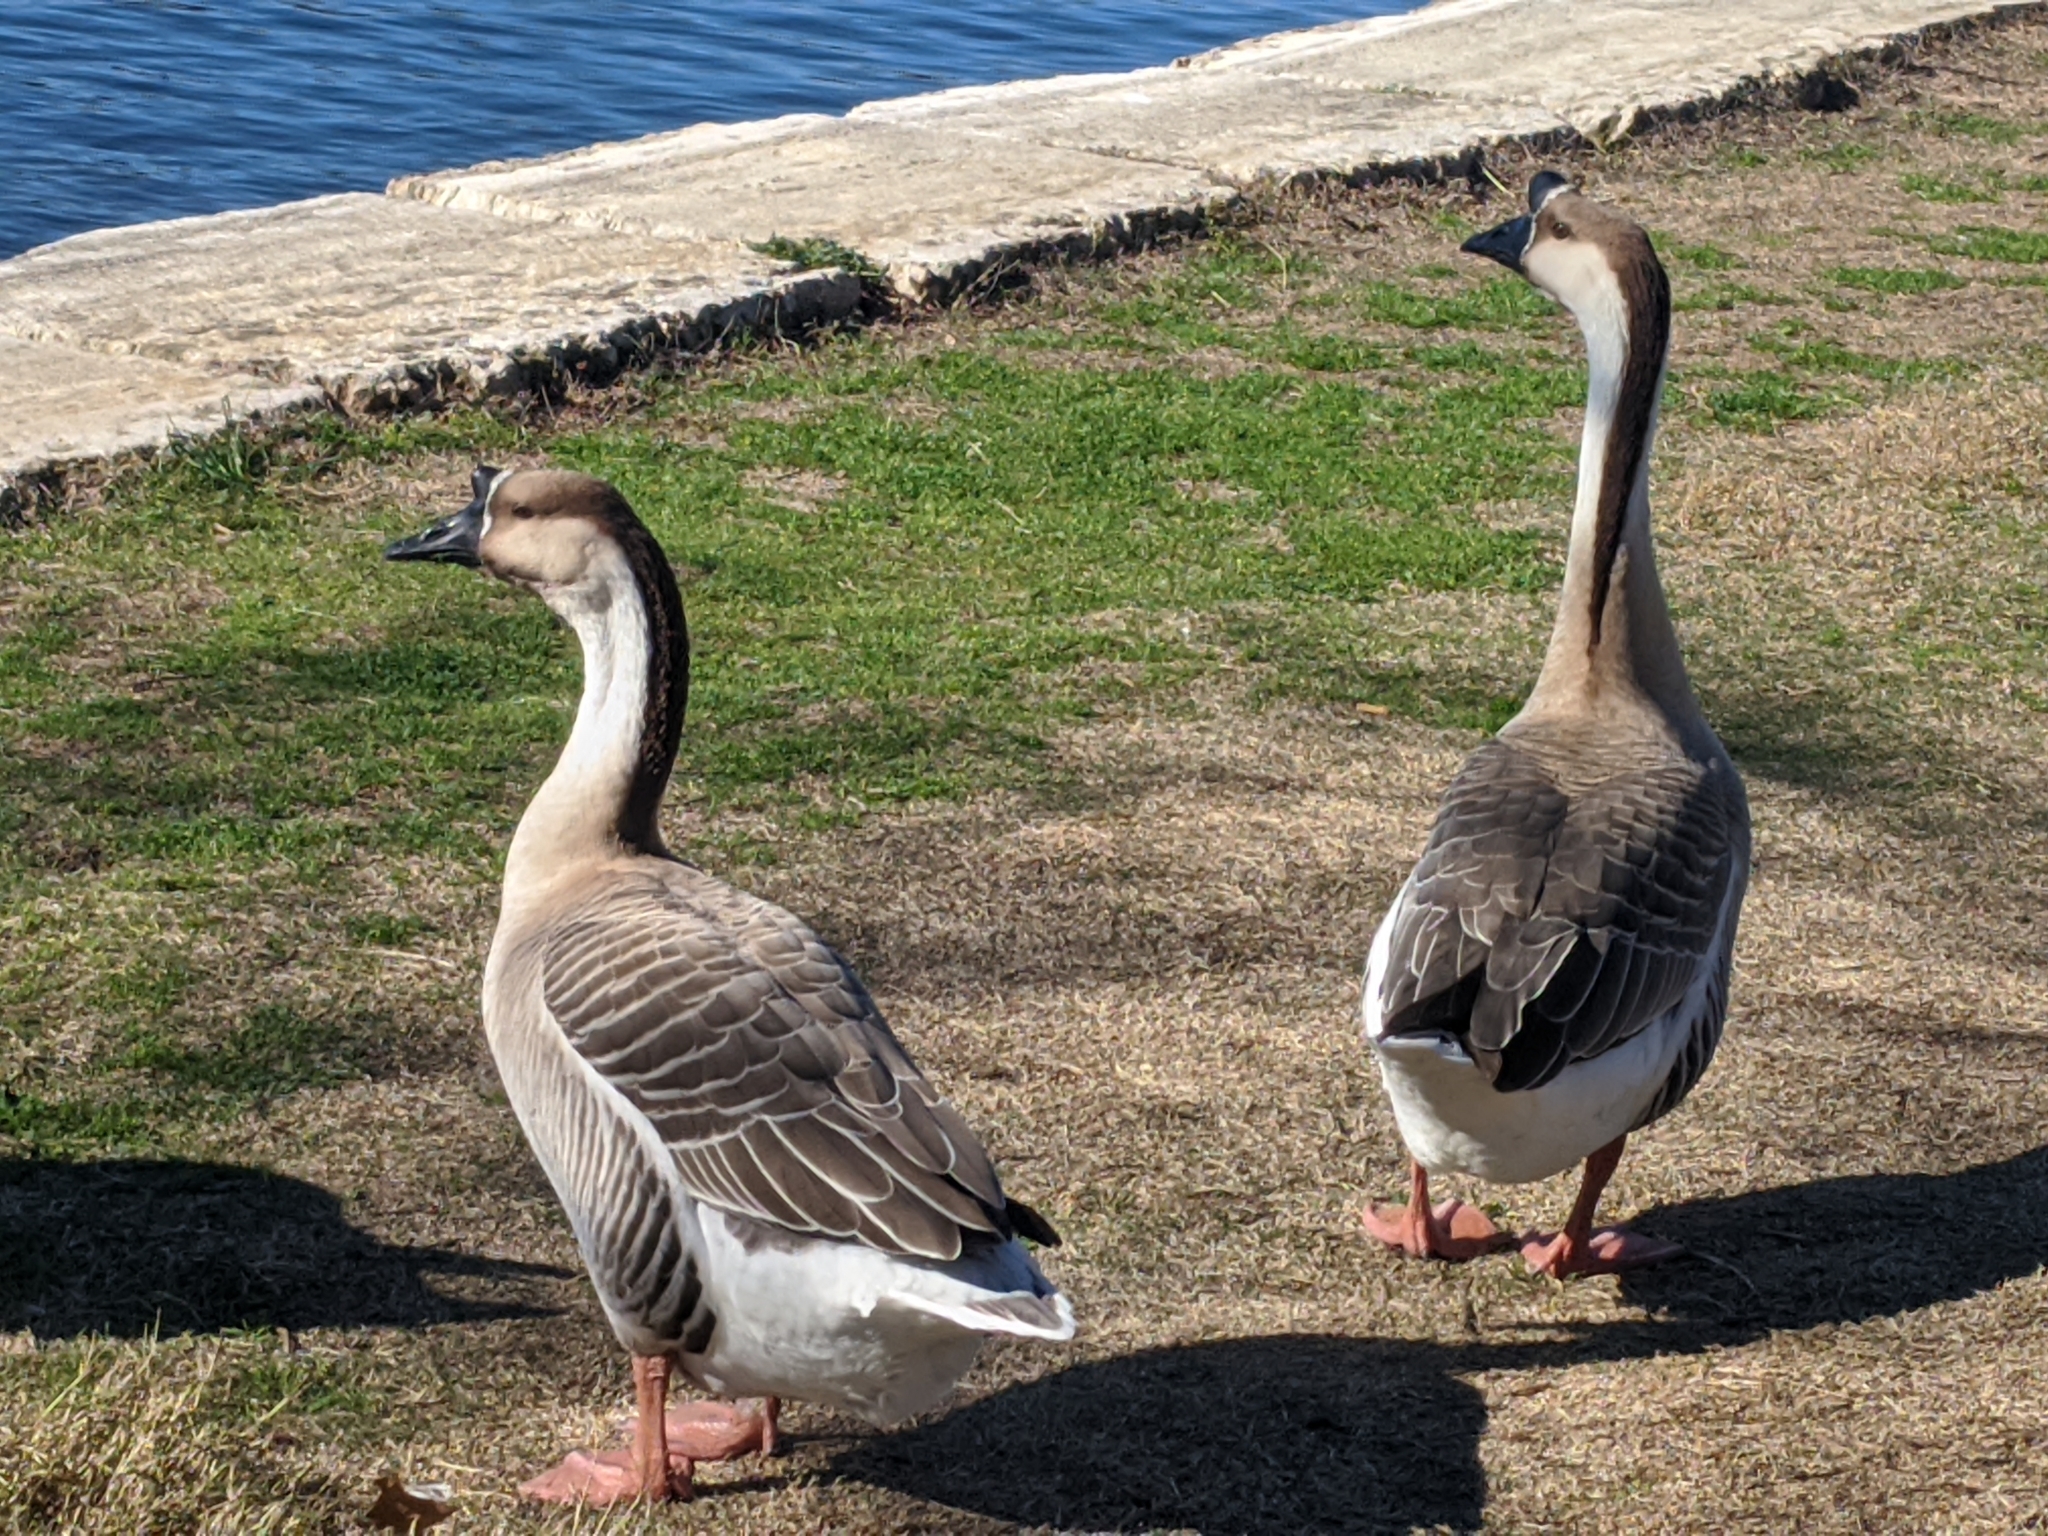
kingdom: Animalia
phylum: Chordata
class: Aves
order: Anseriformes
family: Anatidae
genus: Anser
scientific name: Anser cygnoides
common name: Swan goose
